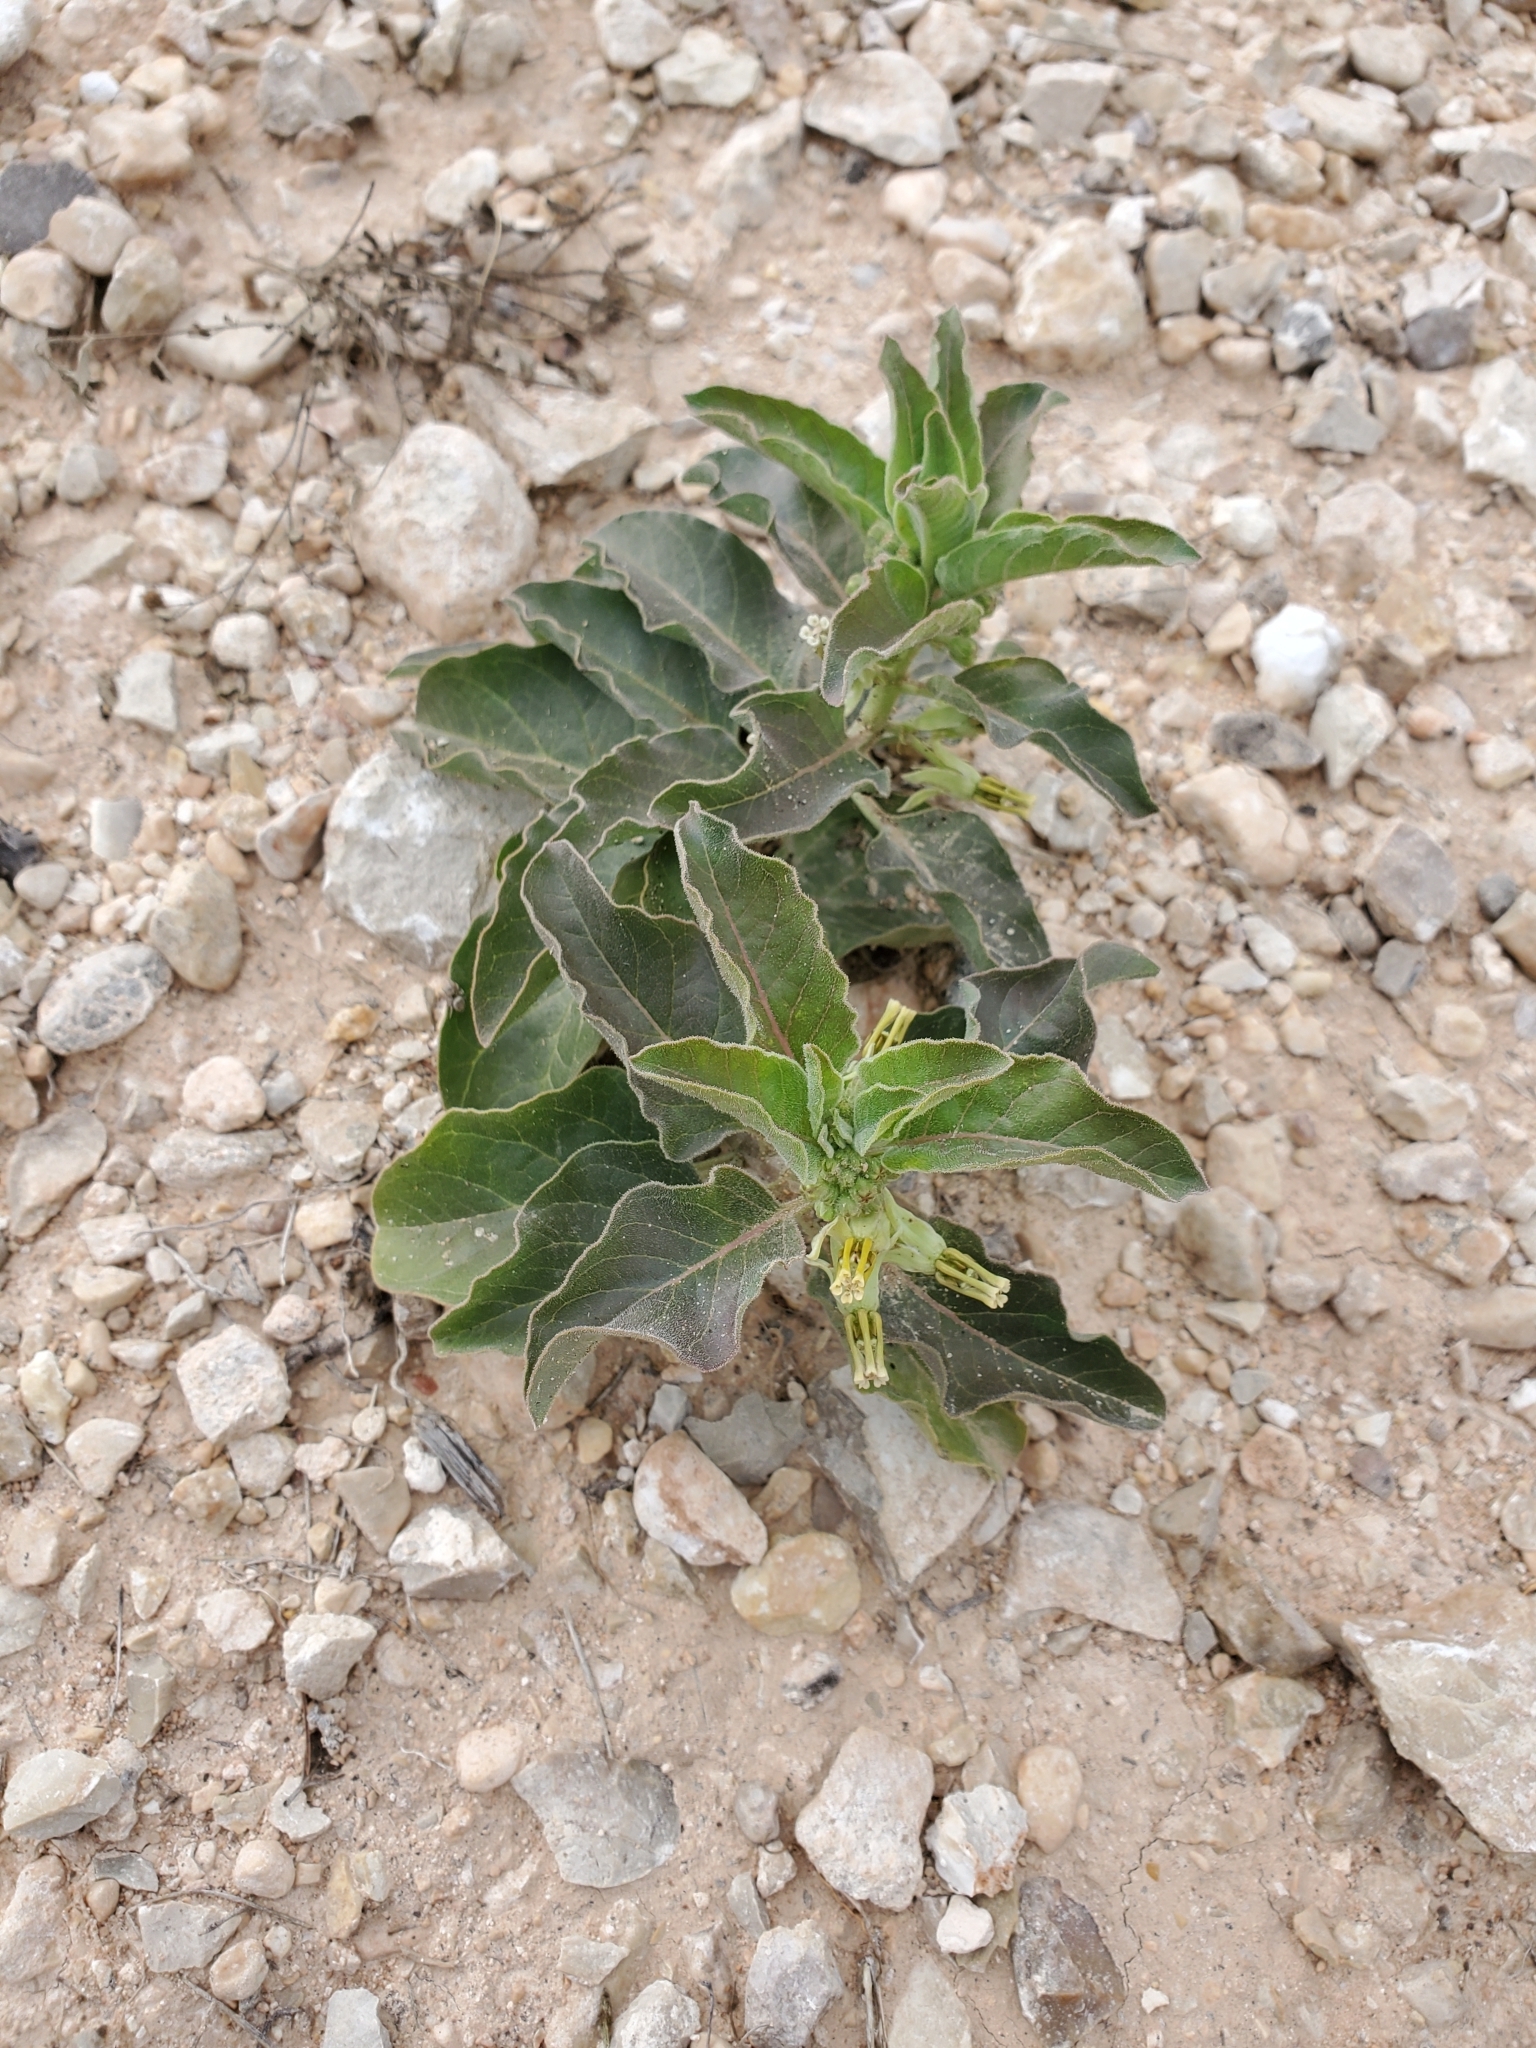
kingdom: Plantae
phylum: Tracheophyta
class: Magnoliopsida
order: Gentianales
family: Apocynaceae
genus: Asclepias
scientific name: Asclepias oenotheroides
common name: Zizotes milkweed
